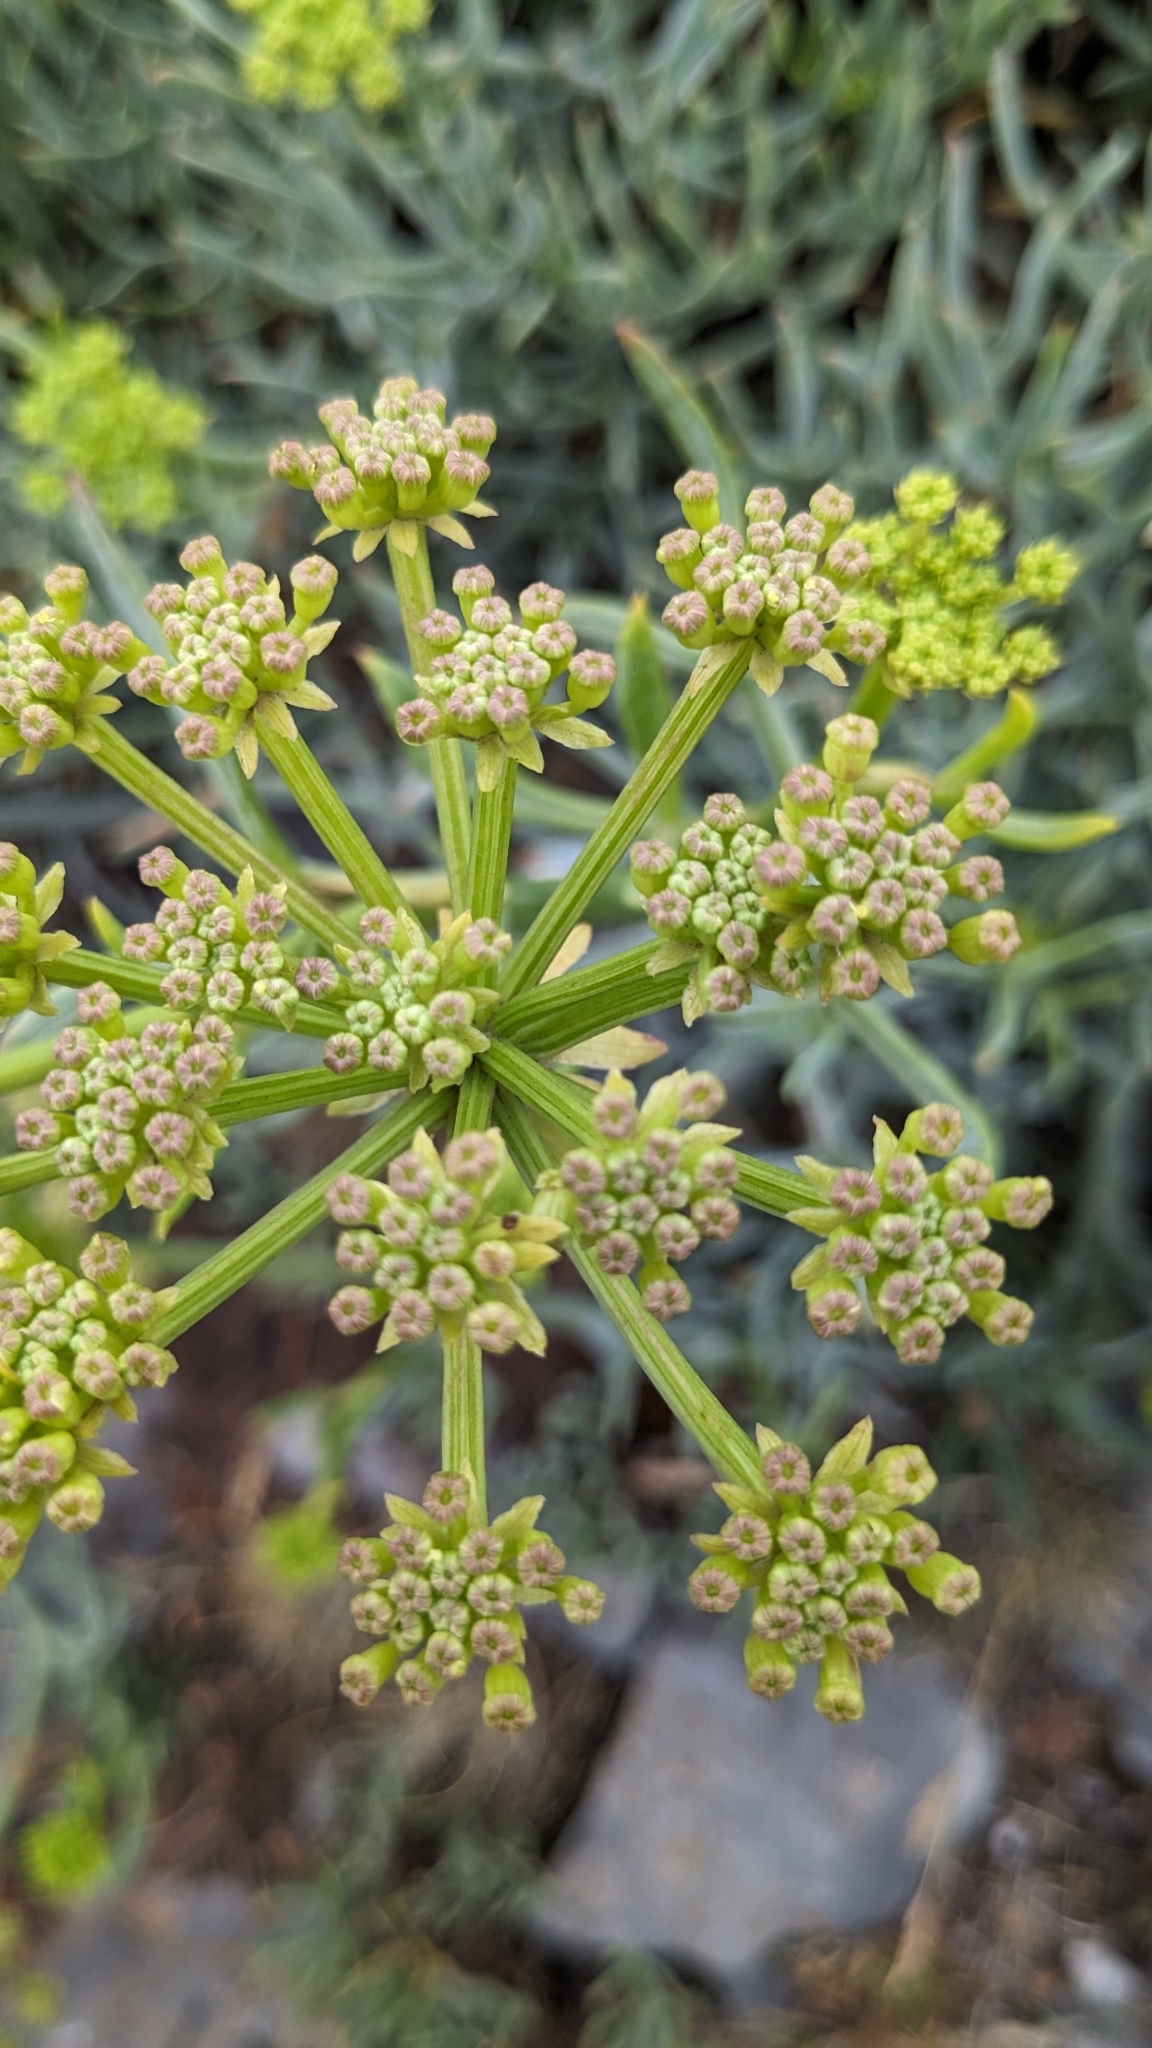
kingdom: Plantae
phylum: Tracheophyta
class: Magnoliopsida
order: Apiales
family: Apiaceae
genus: Crithmum
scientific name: Crithmum maritimum
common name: Rock samphire
